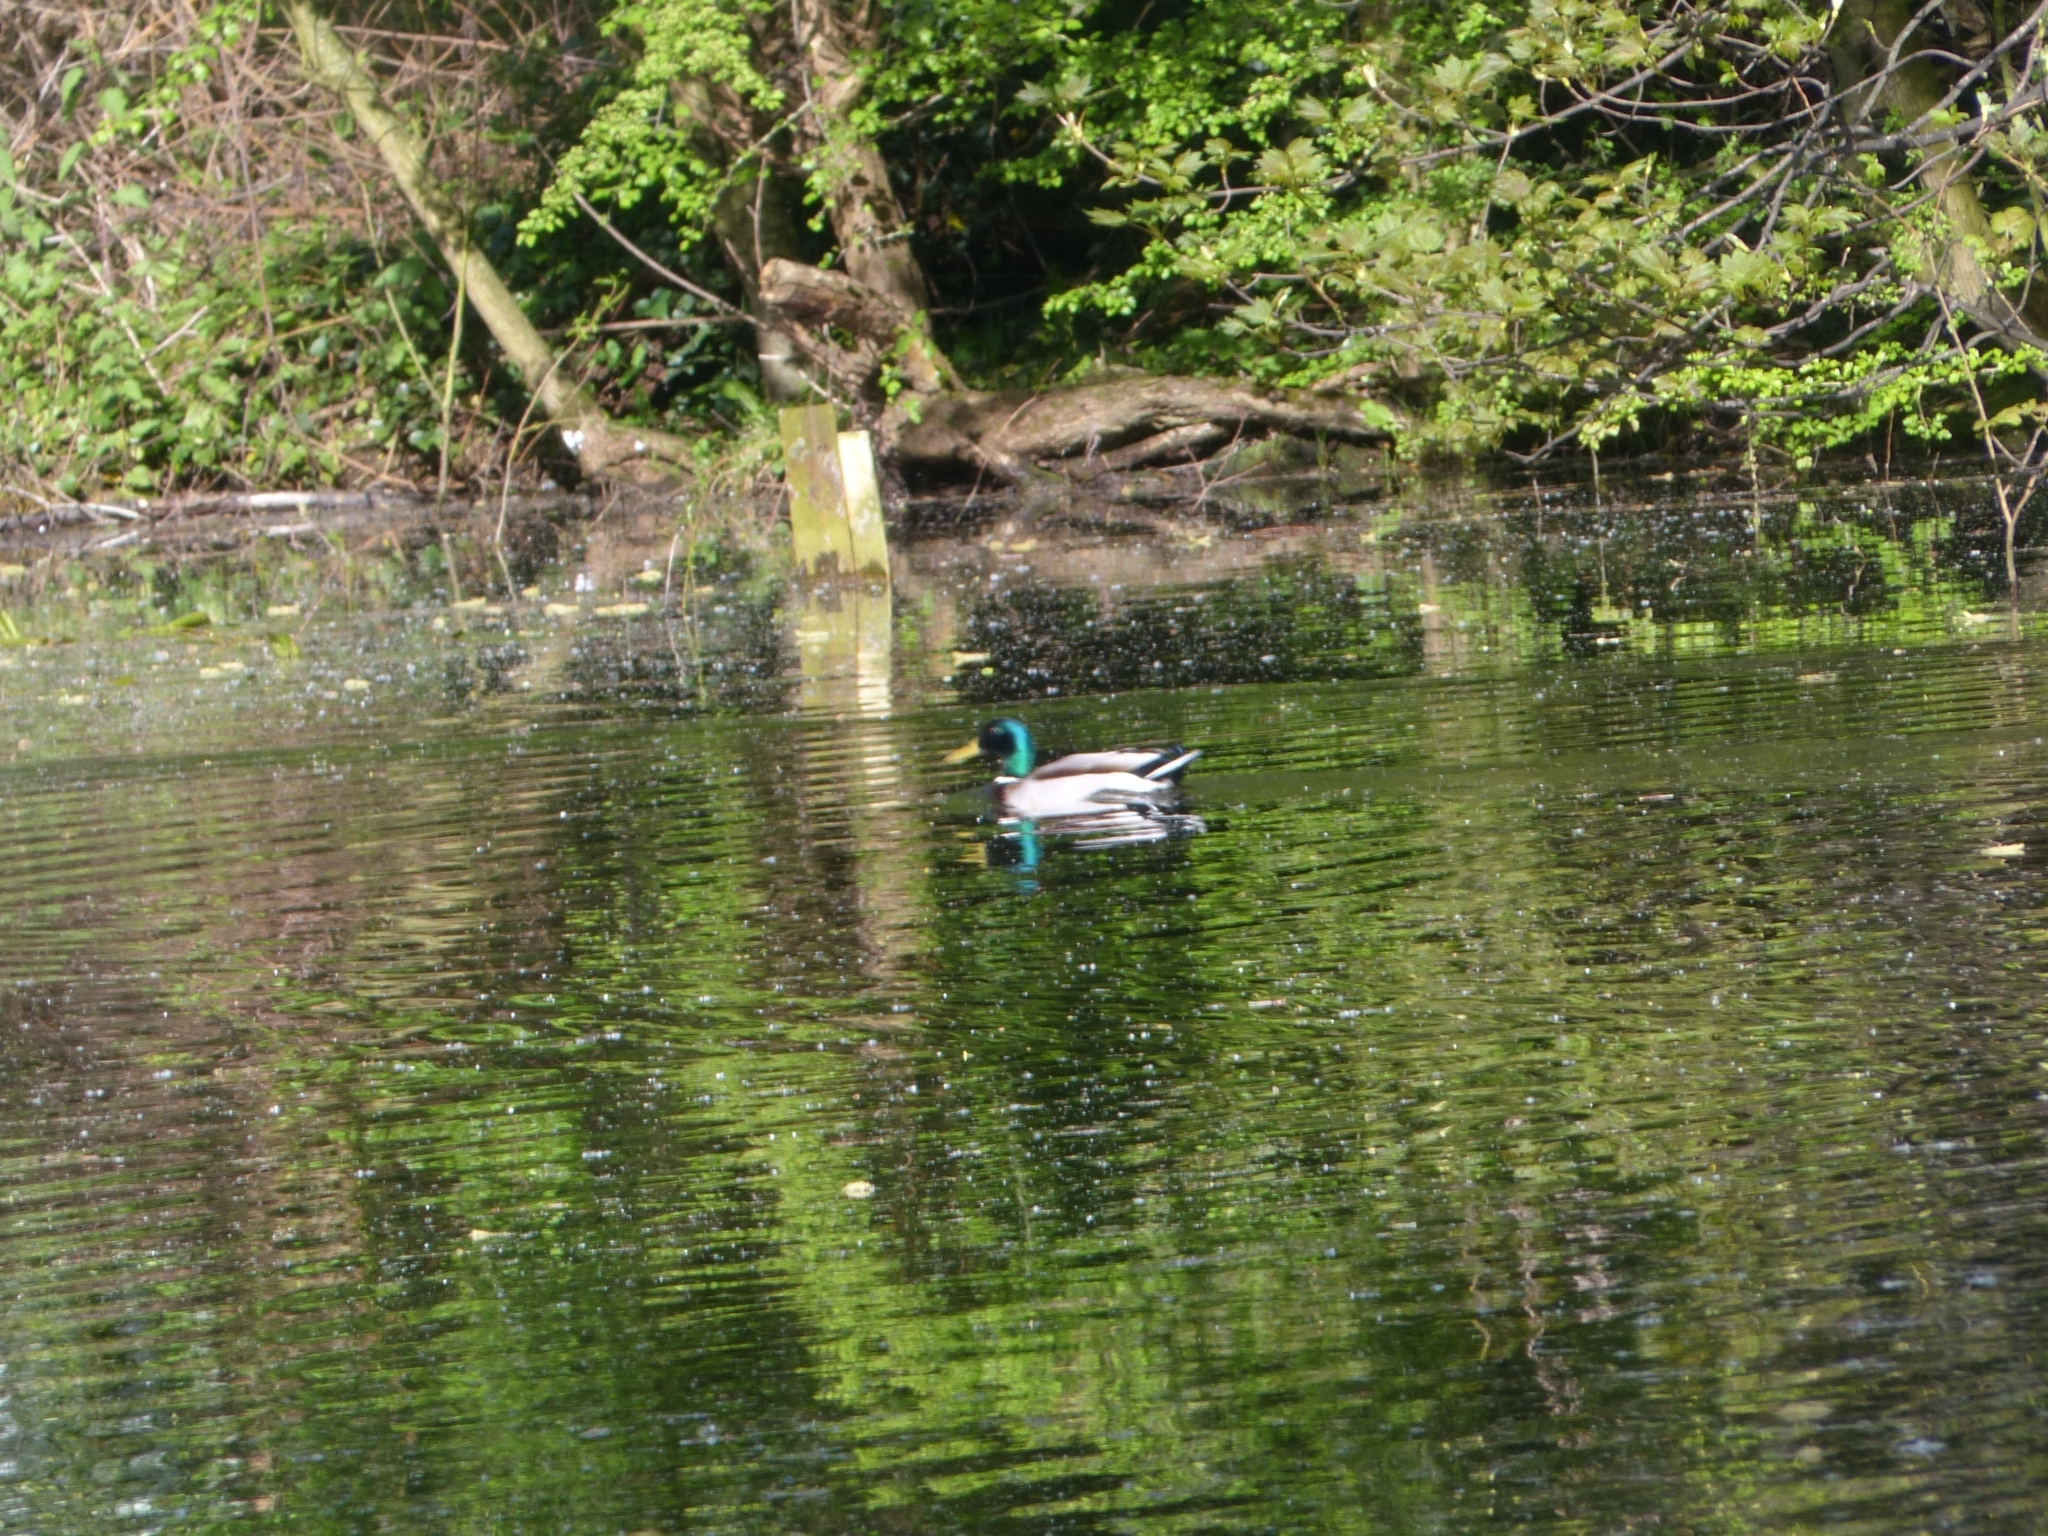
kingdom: Animalia
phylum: Chordata
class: Aves
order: Anseriformes
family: Anatidae
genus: Anas
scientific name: Anas platyrhynchos
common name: Mallard
